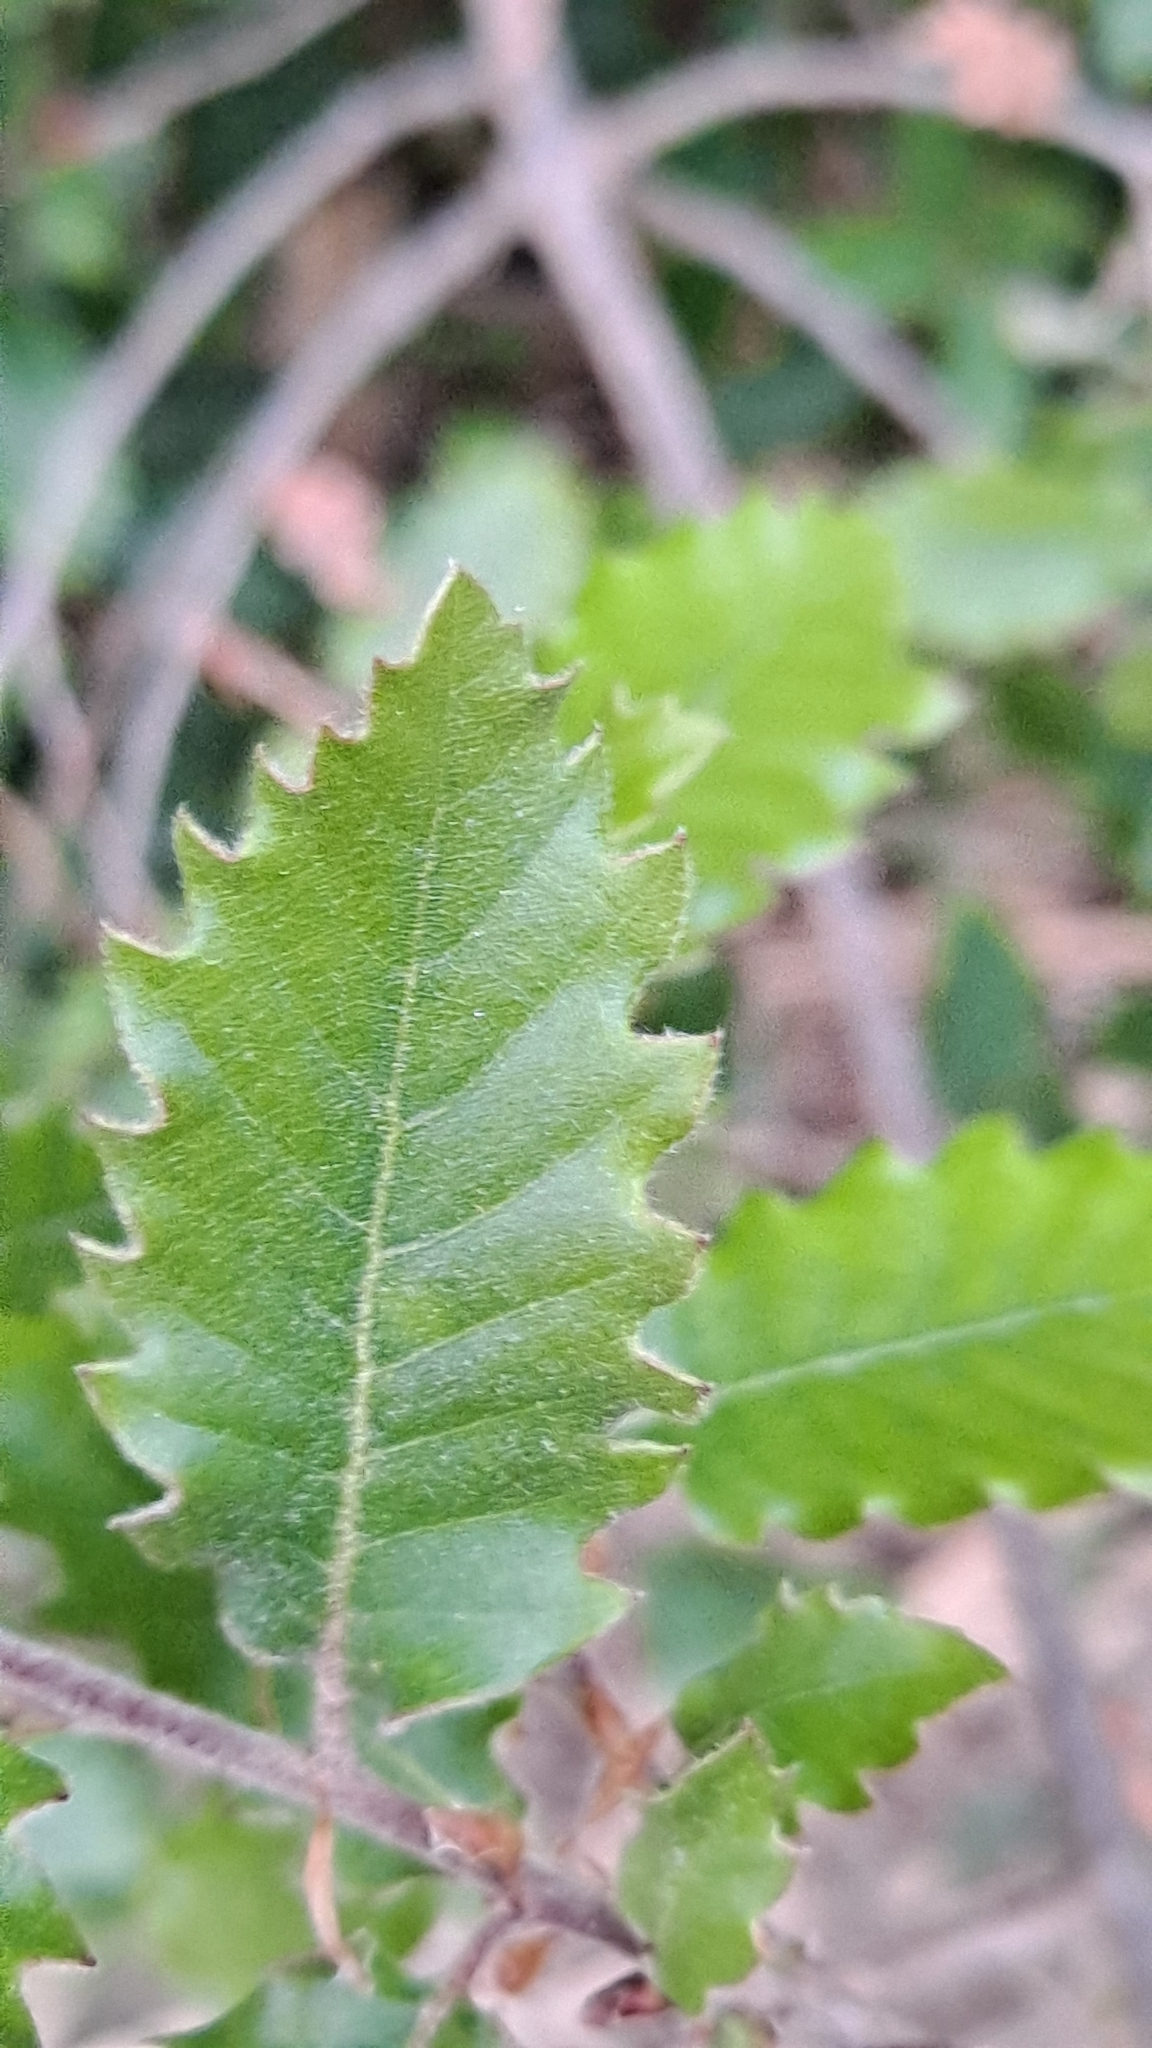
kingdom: Plantae
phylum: Tracheophyta
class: Magnoliopsida
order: Fagales
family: Fagaceae
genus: Quercus
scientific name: Quercus pubescens
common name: Downy oak
